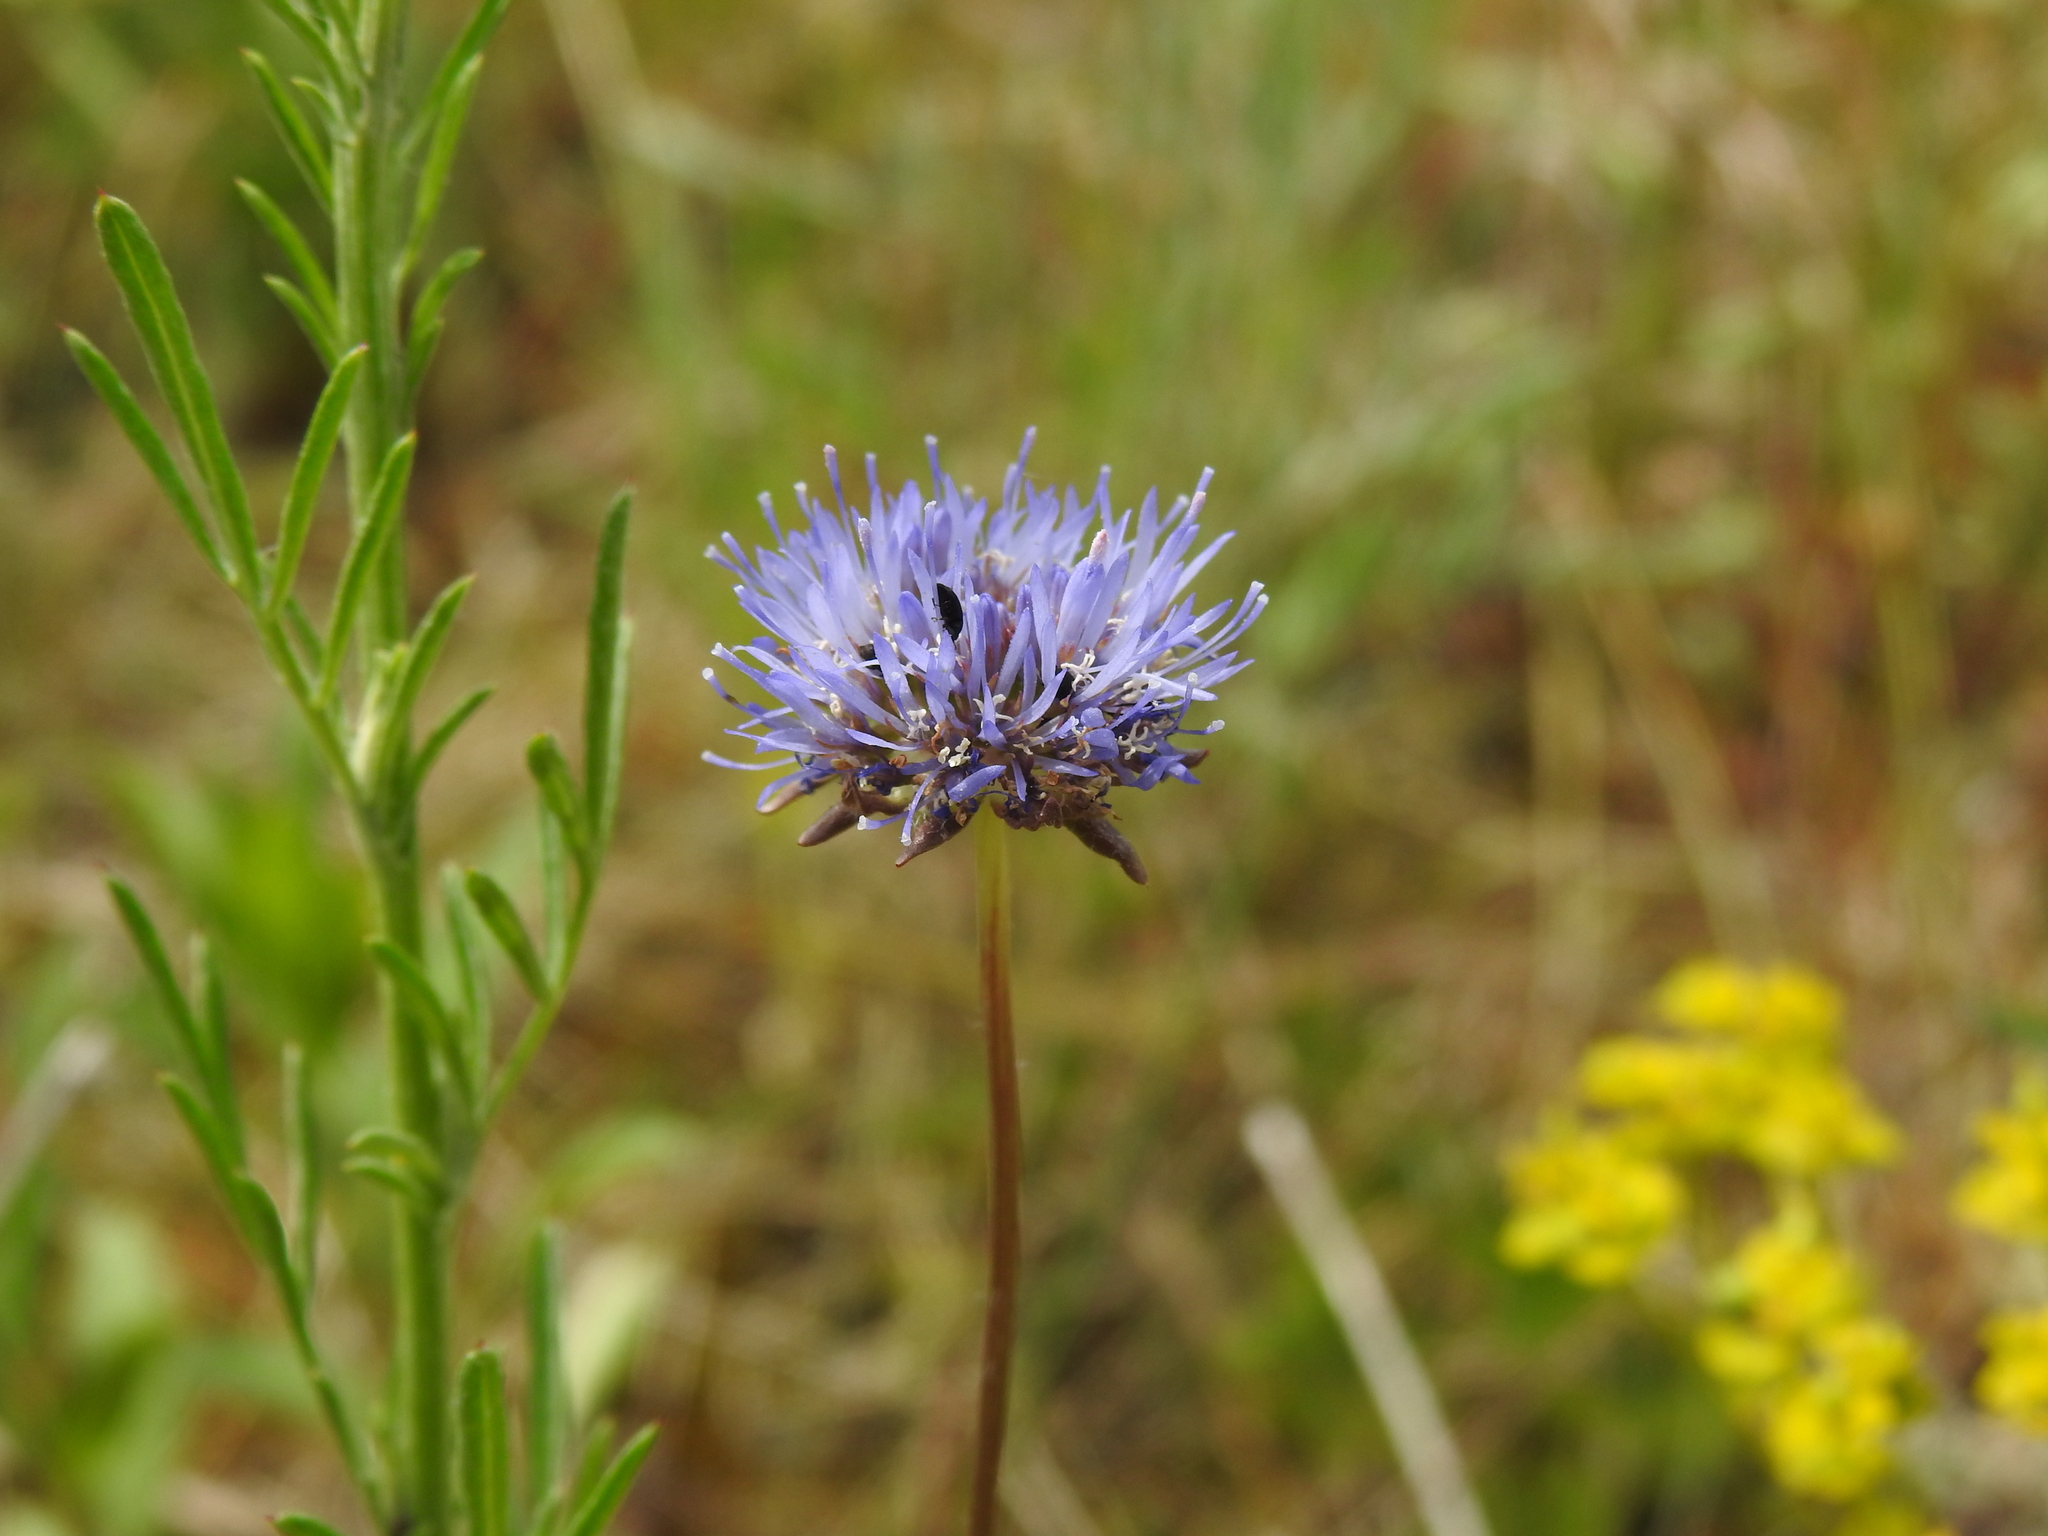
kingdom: Plantae
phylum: Tracheophyta
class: Magnoliopsida
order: Asterales
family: Campanulaceae
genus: Jasione
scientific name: Jasione montana
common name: Sheep's-bit
